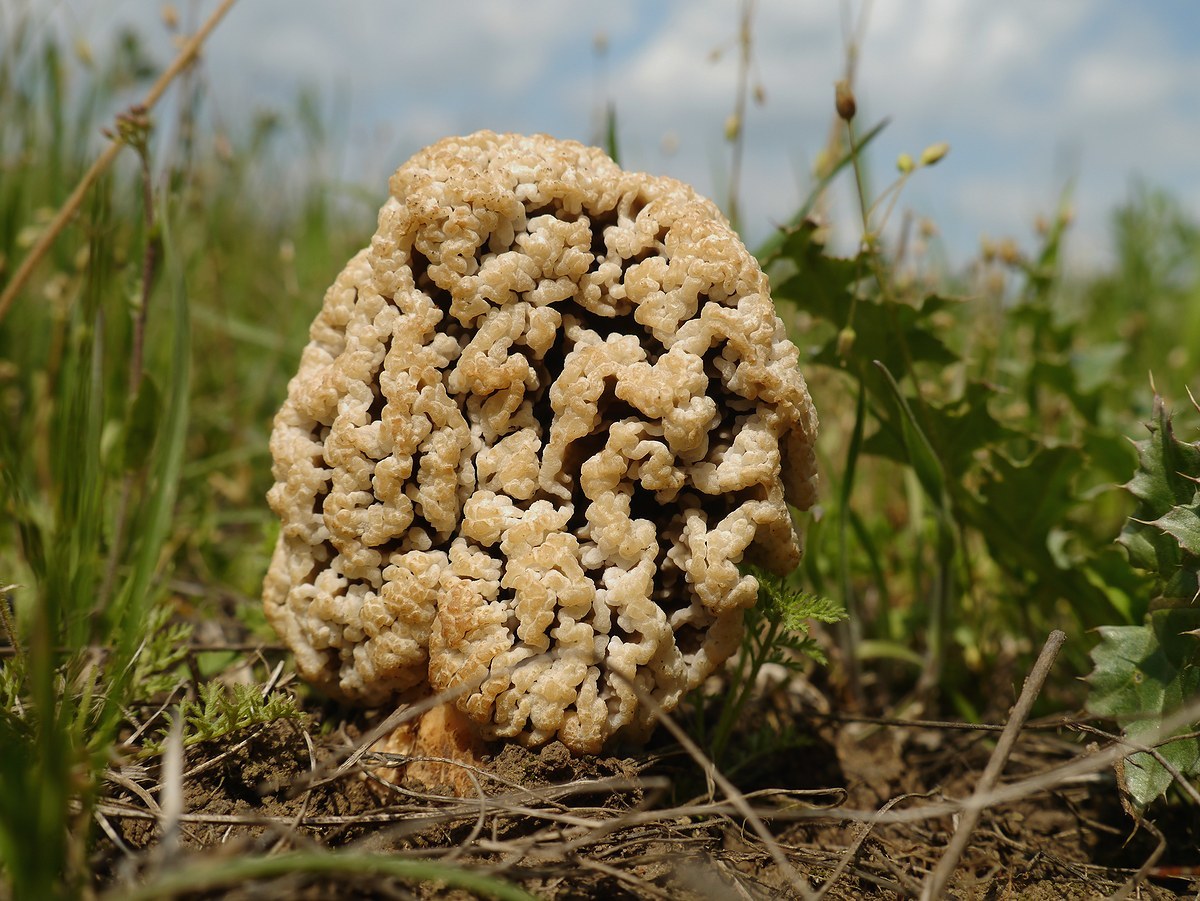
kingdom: Fungi
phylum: Ascomycota
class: Pezizomycetes
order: Pezizales
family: Morchellaceae
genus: Morchella
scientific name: Morchella steppicola
